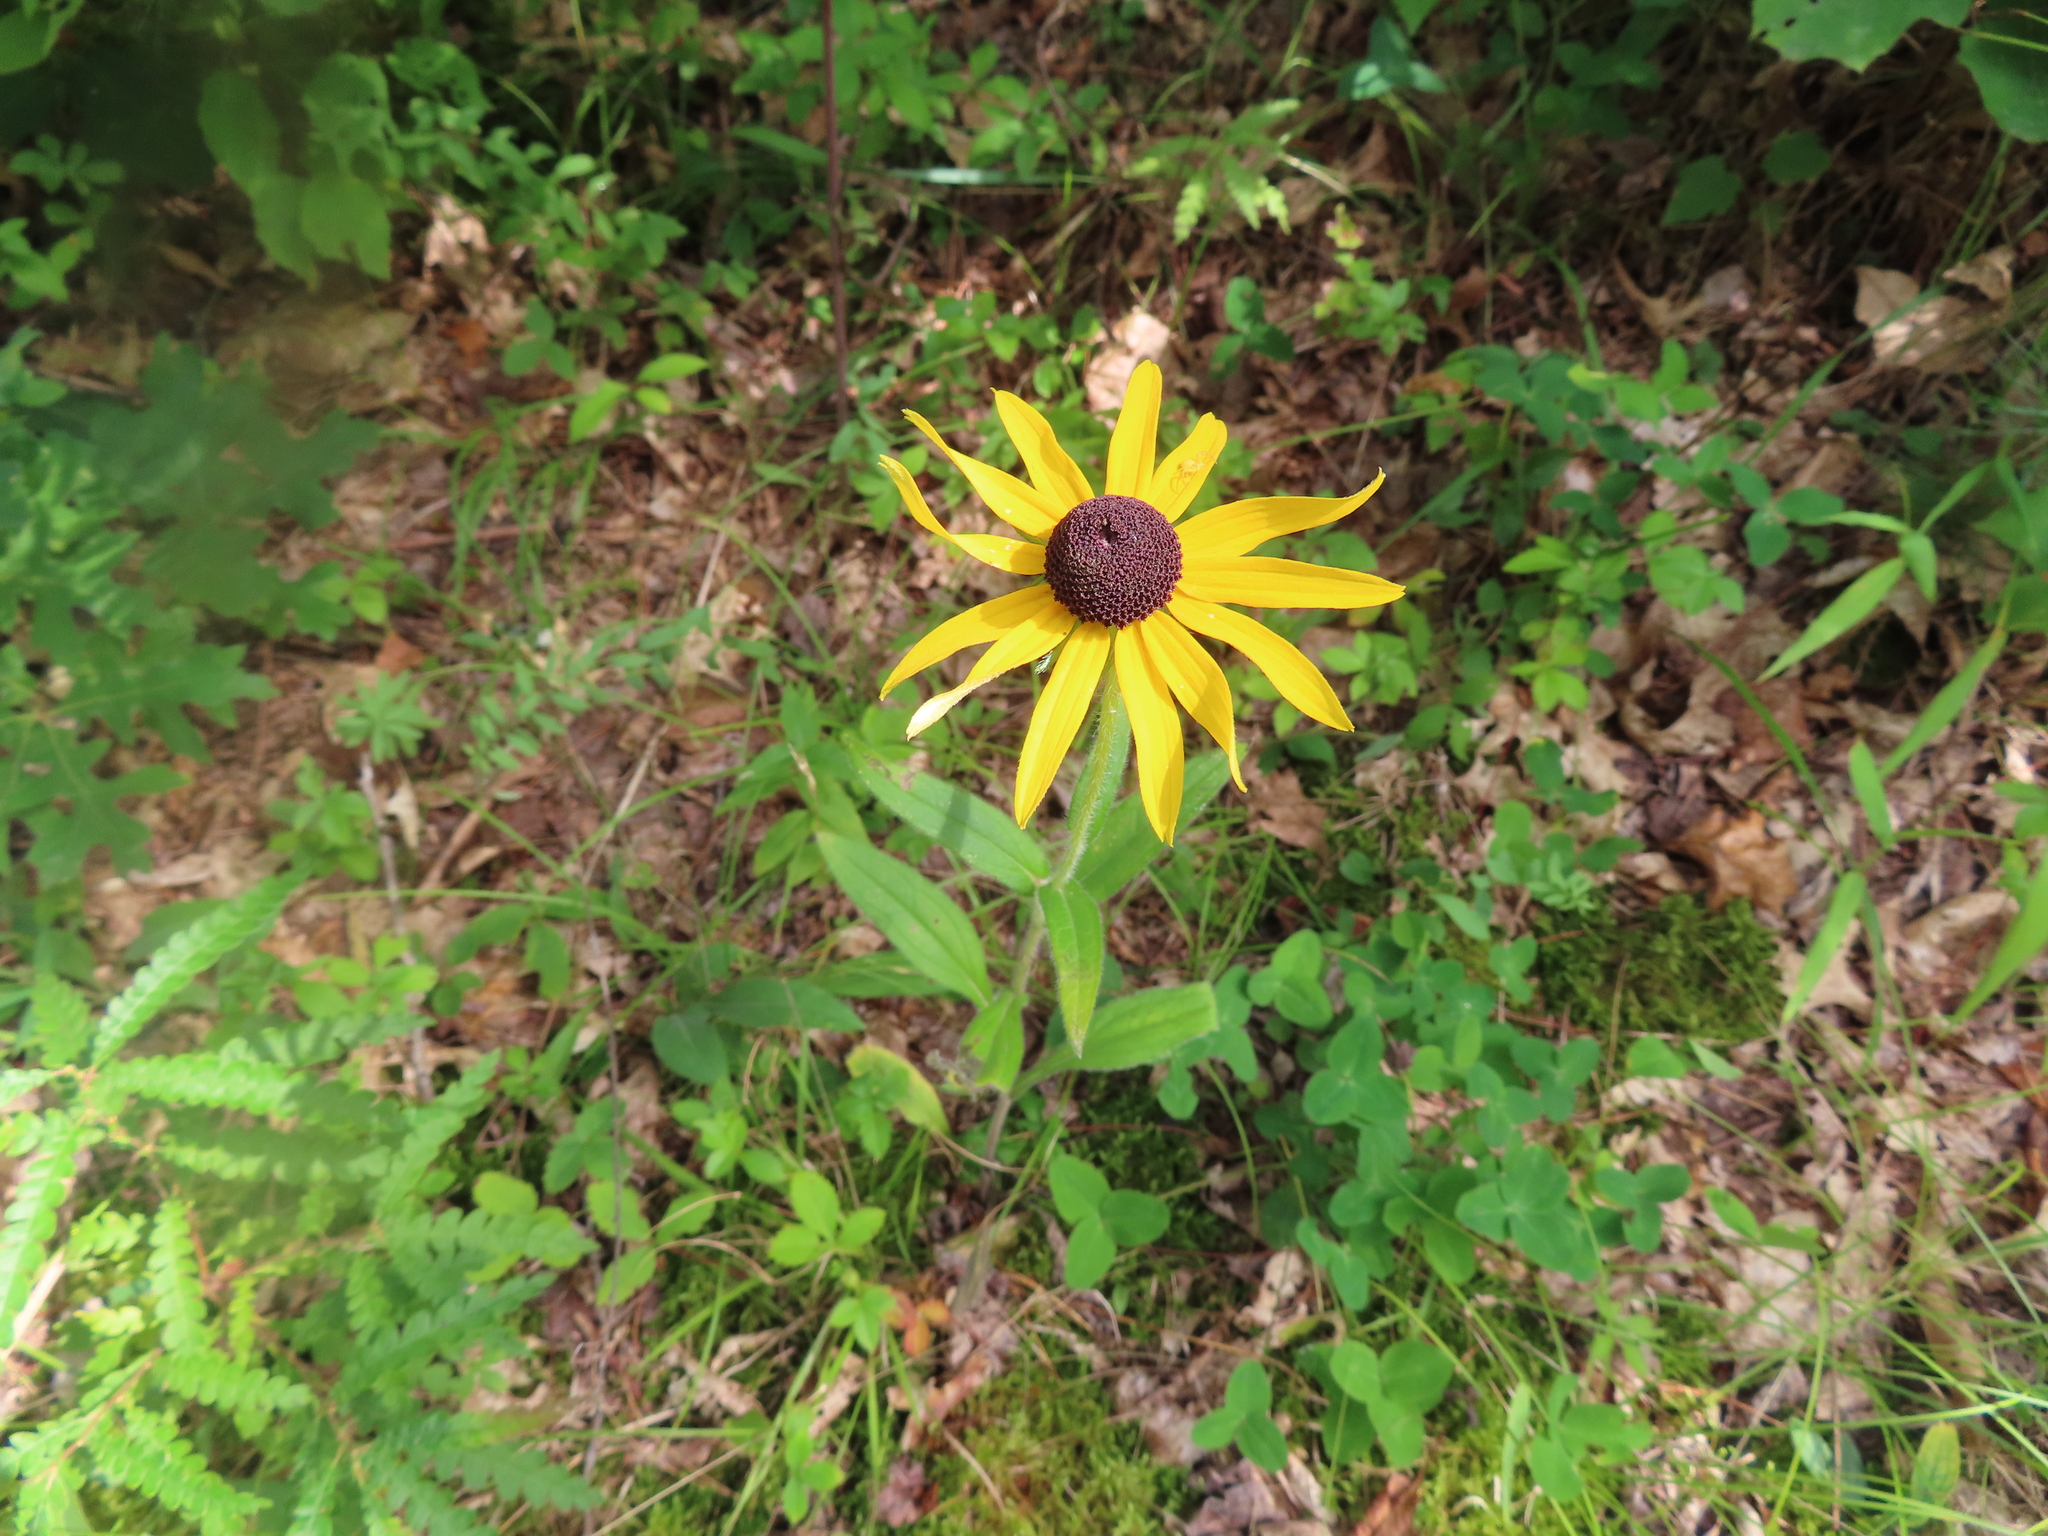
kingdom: Plantae
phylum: Tracheophyta
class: Magnoliopsida
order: Asterales
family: Asteraceae
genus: Rudbeckia
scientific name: Rudbeckia hirta
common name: Black-eyed-susan
